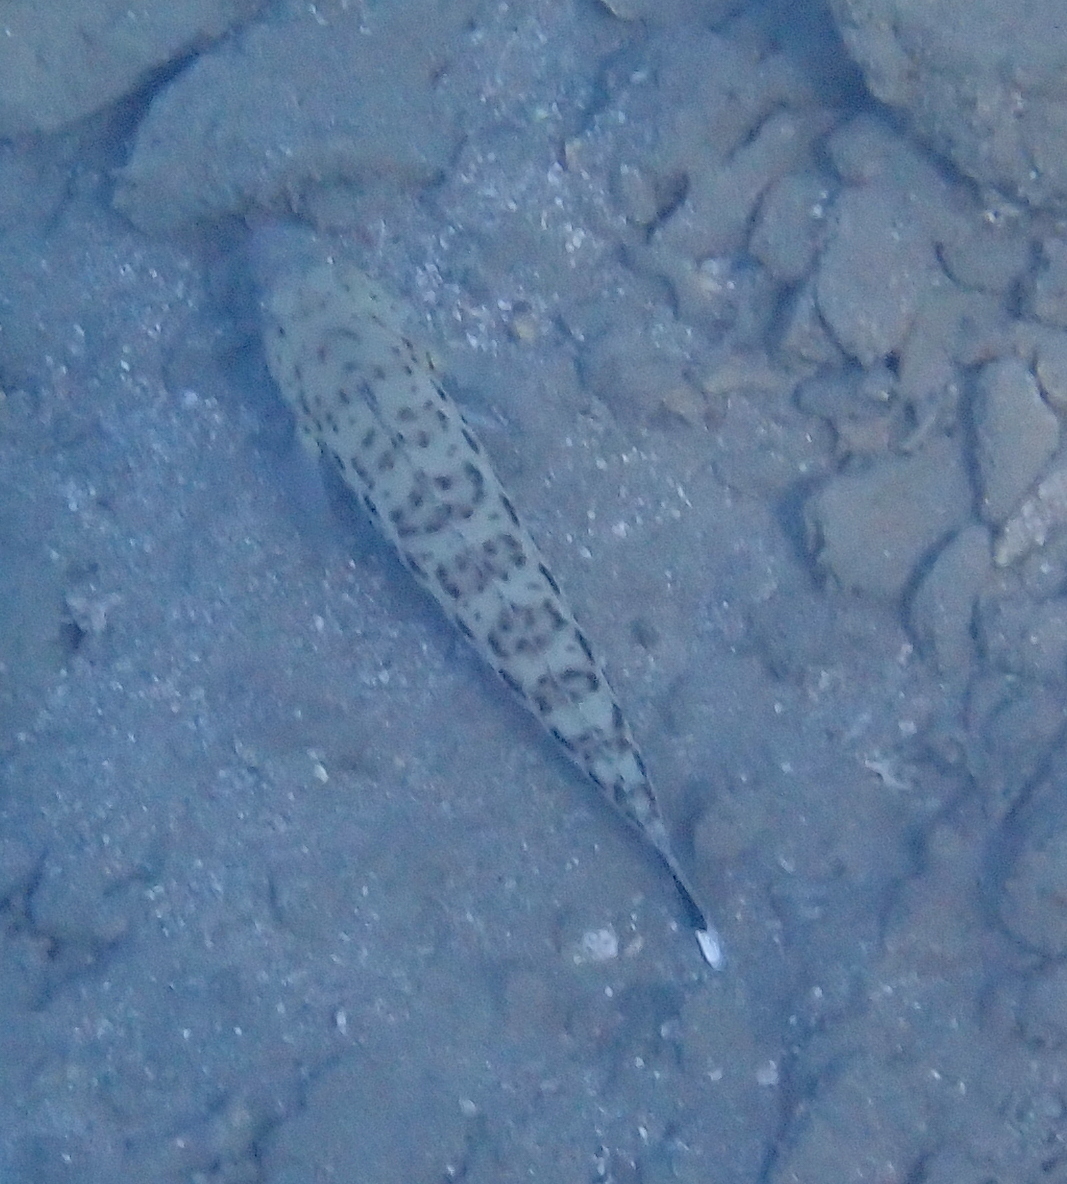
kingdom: Animalia
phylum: Chordata
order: Perciformes
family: Pinguipedidae
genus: Parapercis
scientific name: Parapercis hexophtalma
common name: Speckled sandperch
